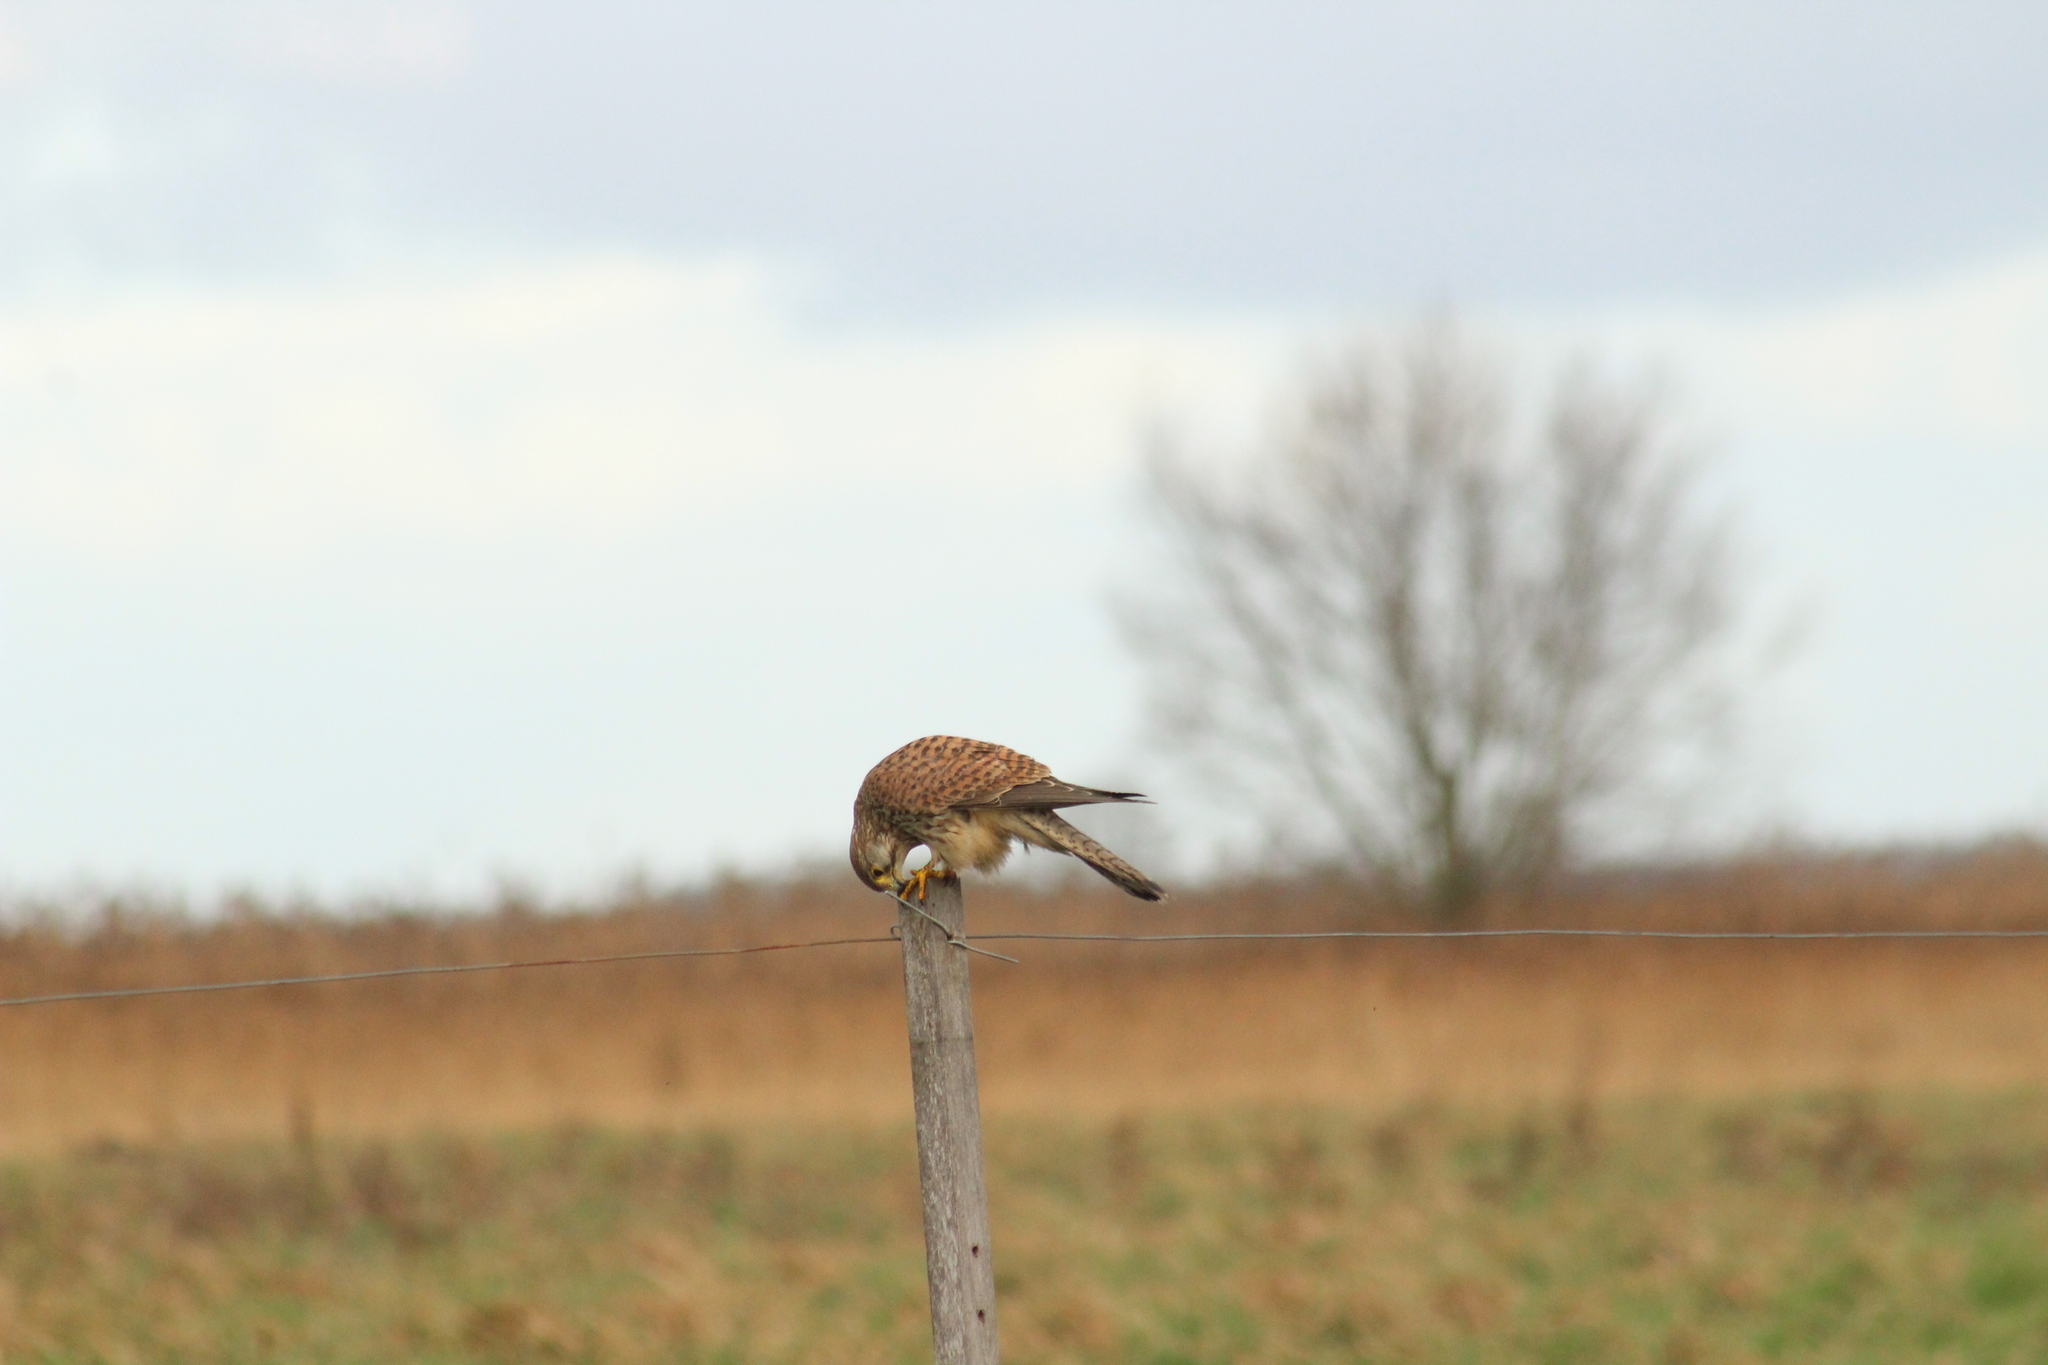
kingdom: Animalia
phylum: Chordata
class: Aves
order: Falconiformes
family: Falconidae
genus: Falco
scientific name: Falco tinnunculus
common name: Common kestrel
